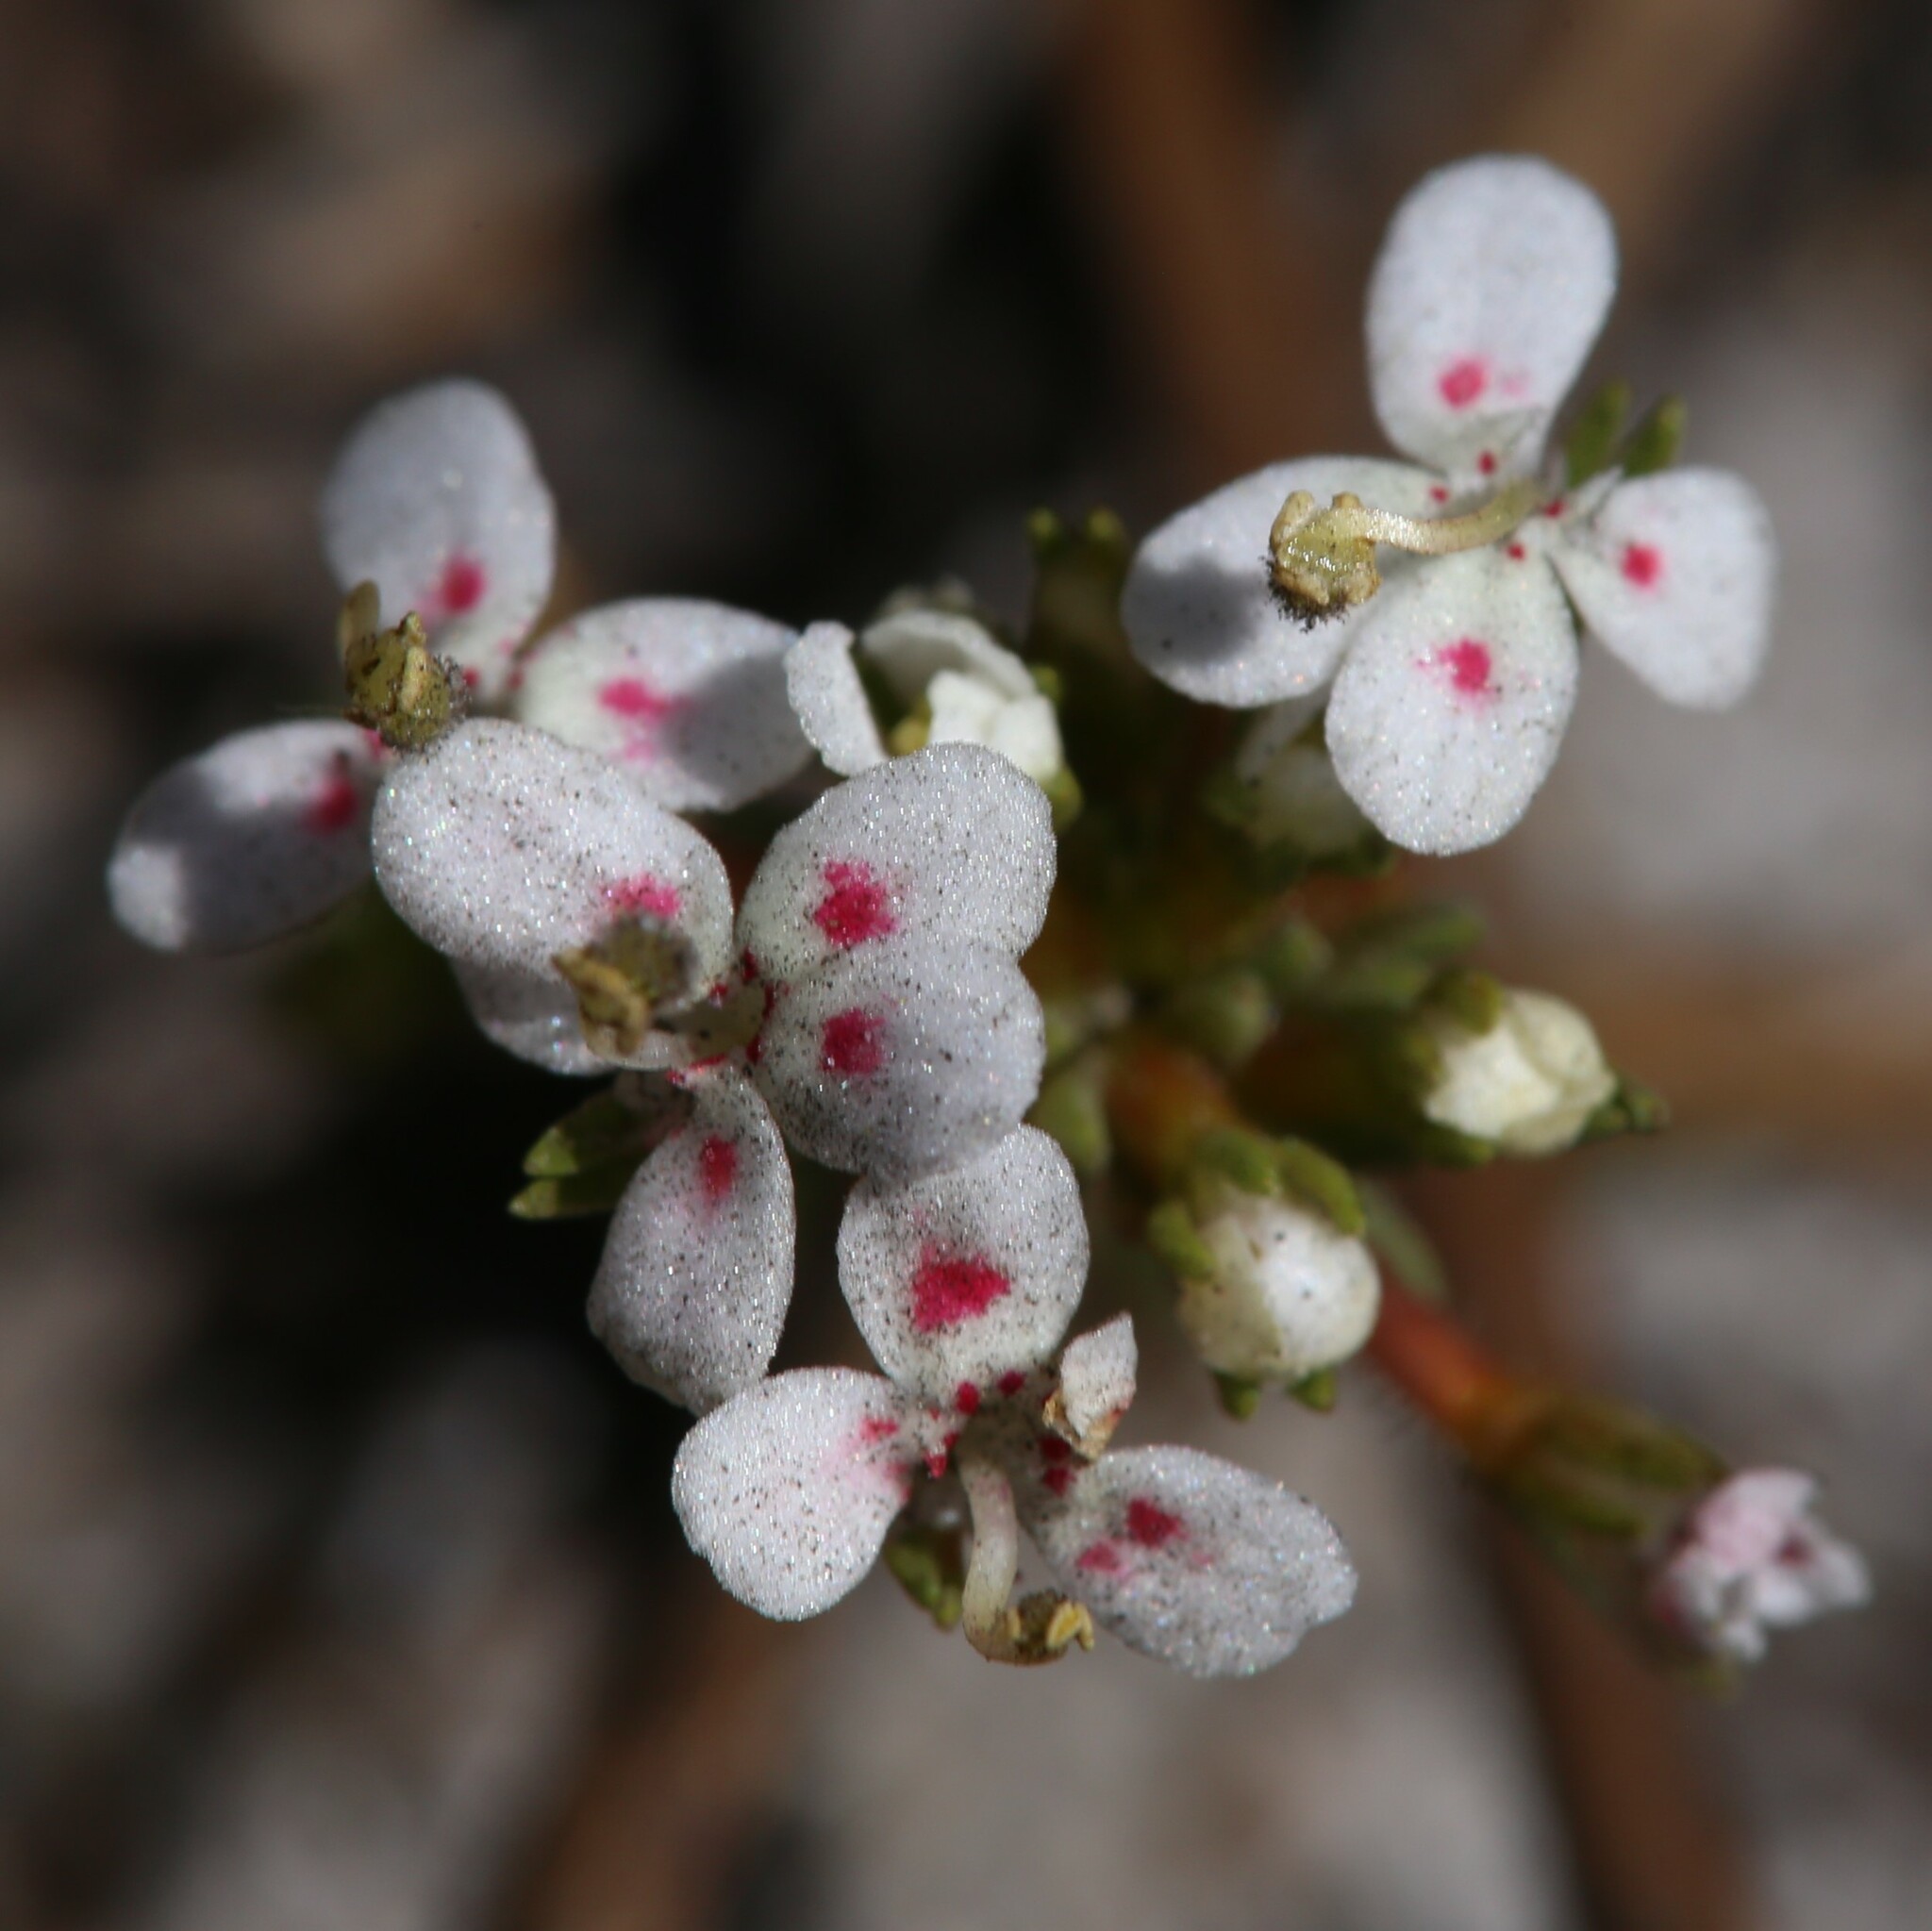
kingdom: Plantae
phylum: Tracheophyta
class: Magnoliopsida
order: Asterales
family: Stylidiaceae
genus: Stylidium
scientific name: Stylidium guttatum
